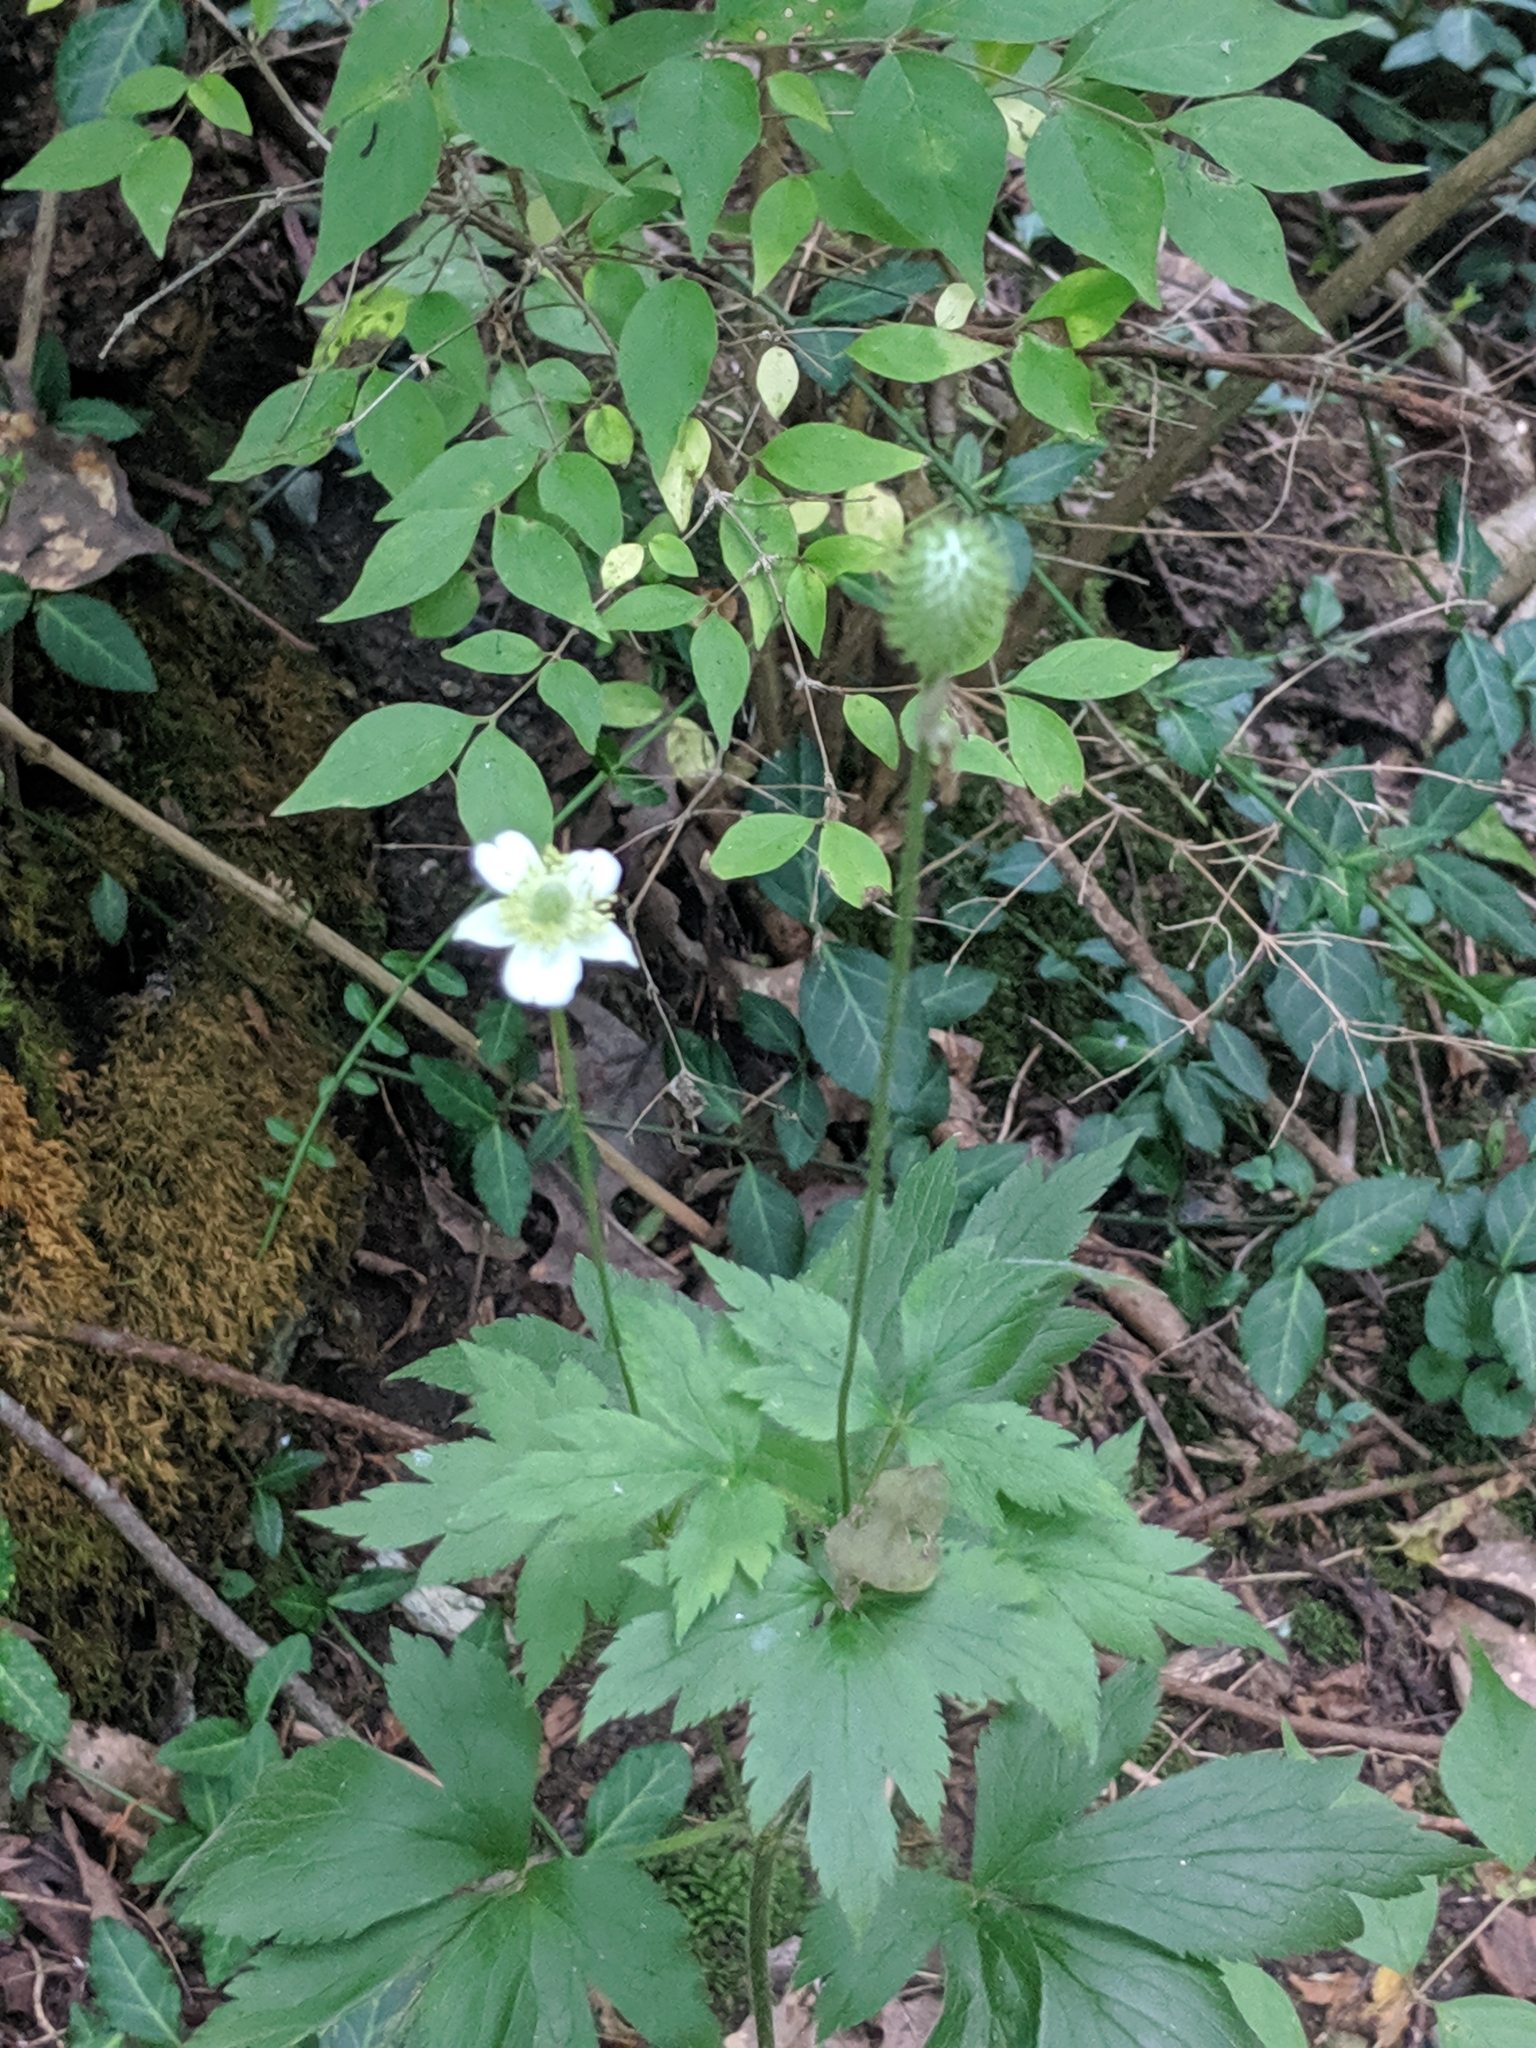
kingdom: Plantae
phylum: Tracheophyta
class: Magnoliopsida
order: Ranunculales
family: Ranunculaceae
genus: Anemone
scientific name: Anemone virginiana
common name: Tall anemone
